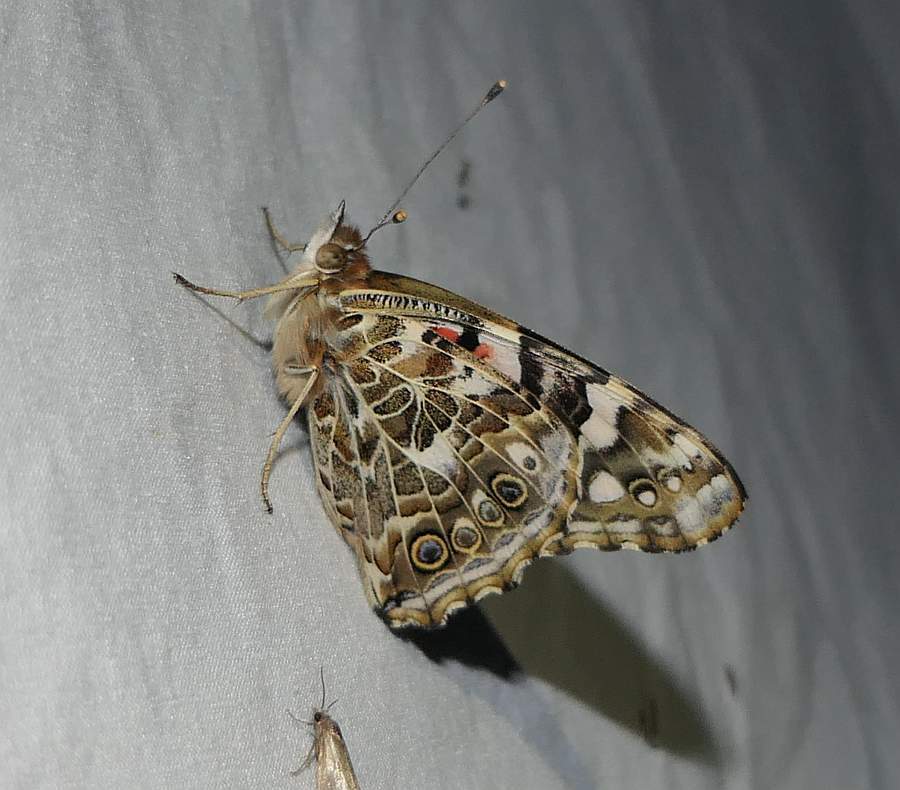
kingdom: Animalia
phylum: Arthropoda
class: Insecta
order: Lepidoptera
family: Nymphalidae
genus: Vanessa
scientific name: Vanessa cardui
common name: Painted lady
